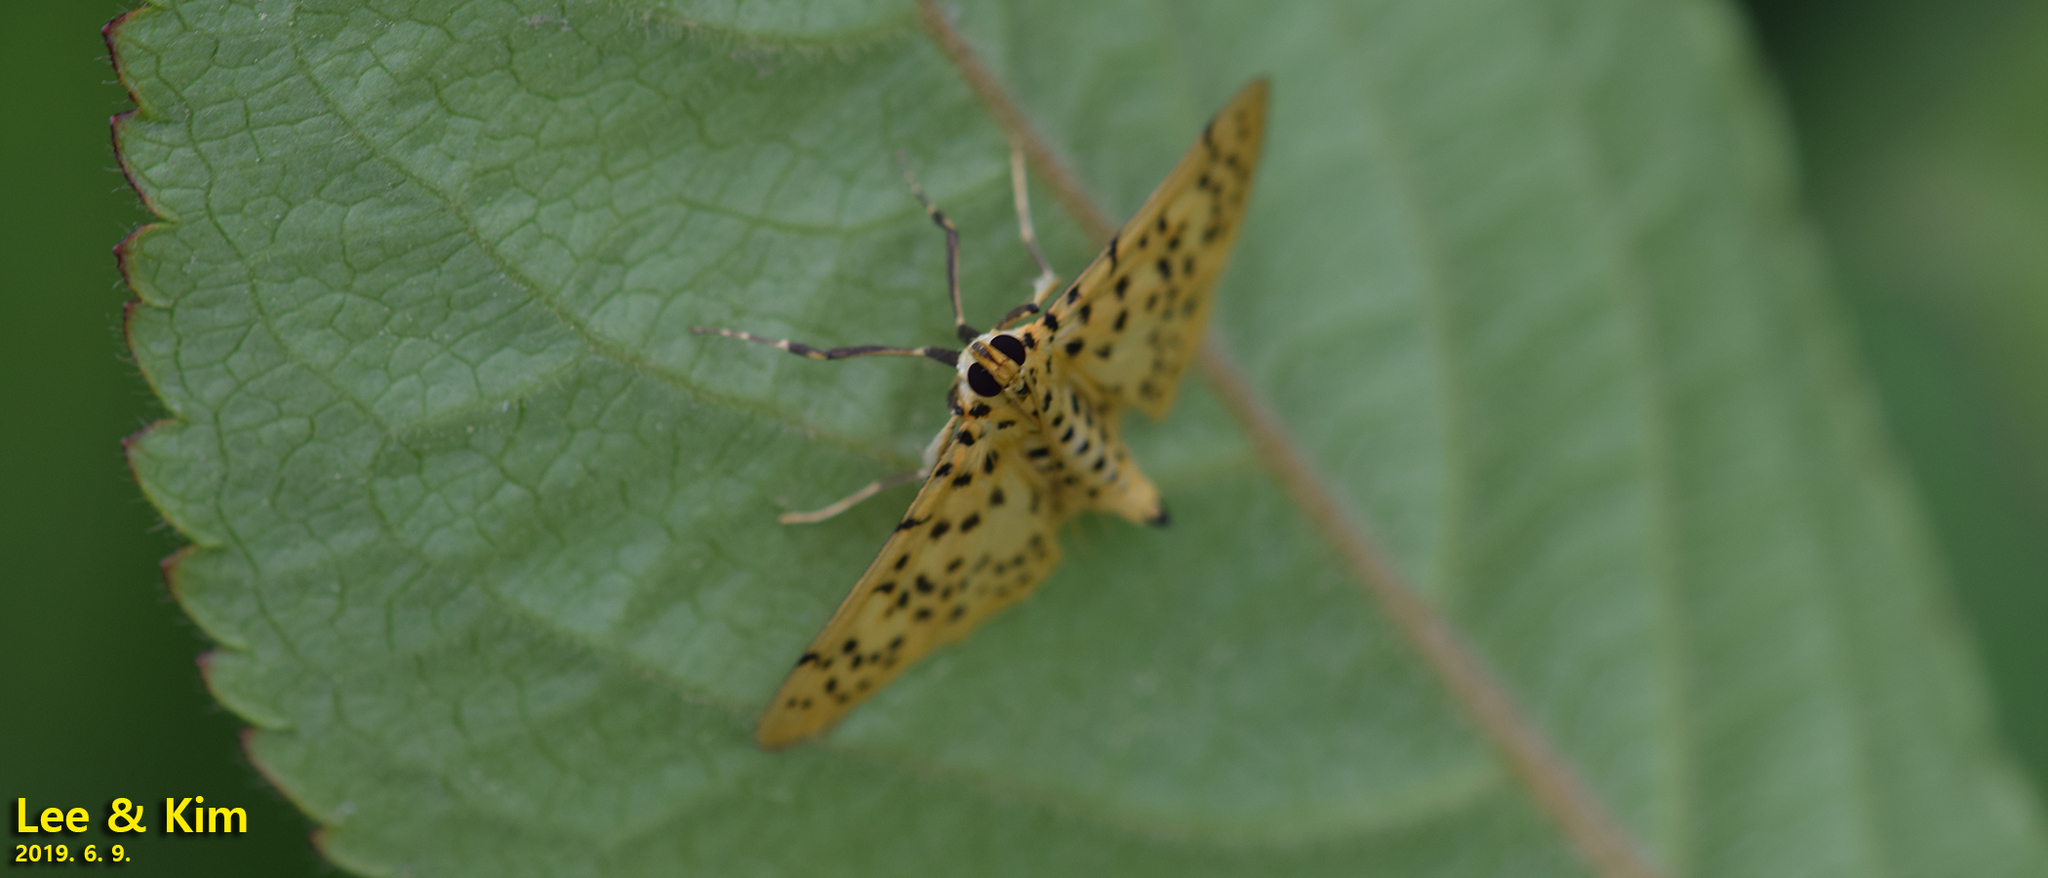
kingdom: Animalia
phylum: Arthropoda
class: Insecta
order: Lepidoptera
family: Crambidae
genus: Conogethes
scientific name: Conogethes punctiferalis
